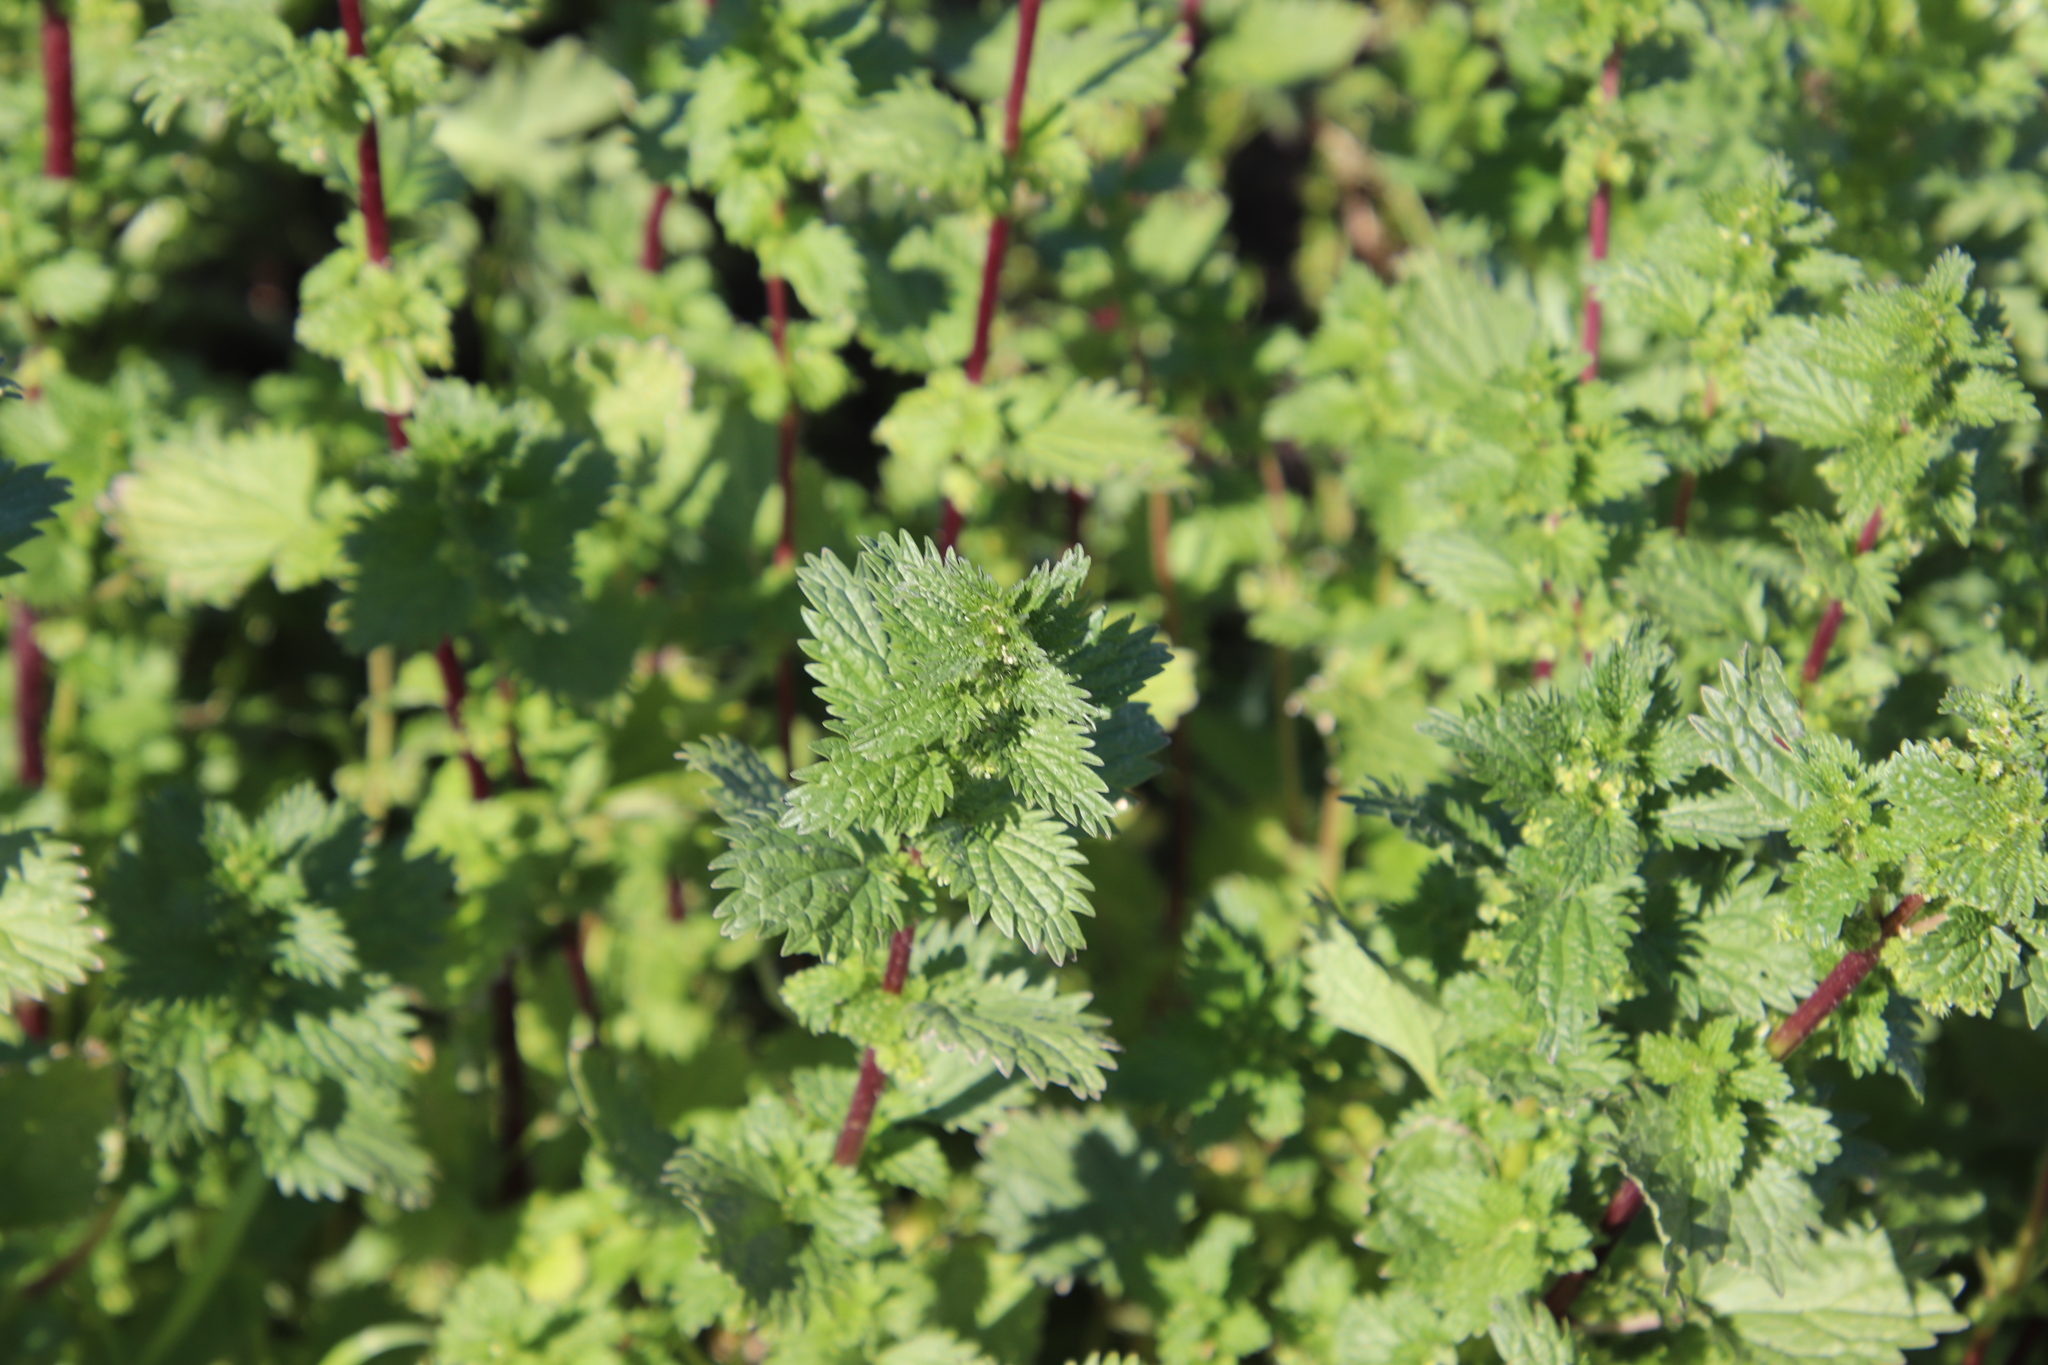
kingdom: Plantae
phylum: Tracheophyta
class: Magnoliopsida
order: Rosales
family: Urticaceae
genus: Urtica
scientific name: Urtica urens
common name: Dwarf nettle
